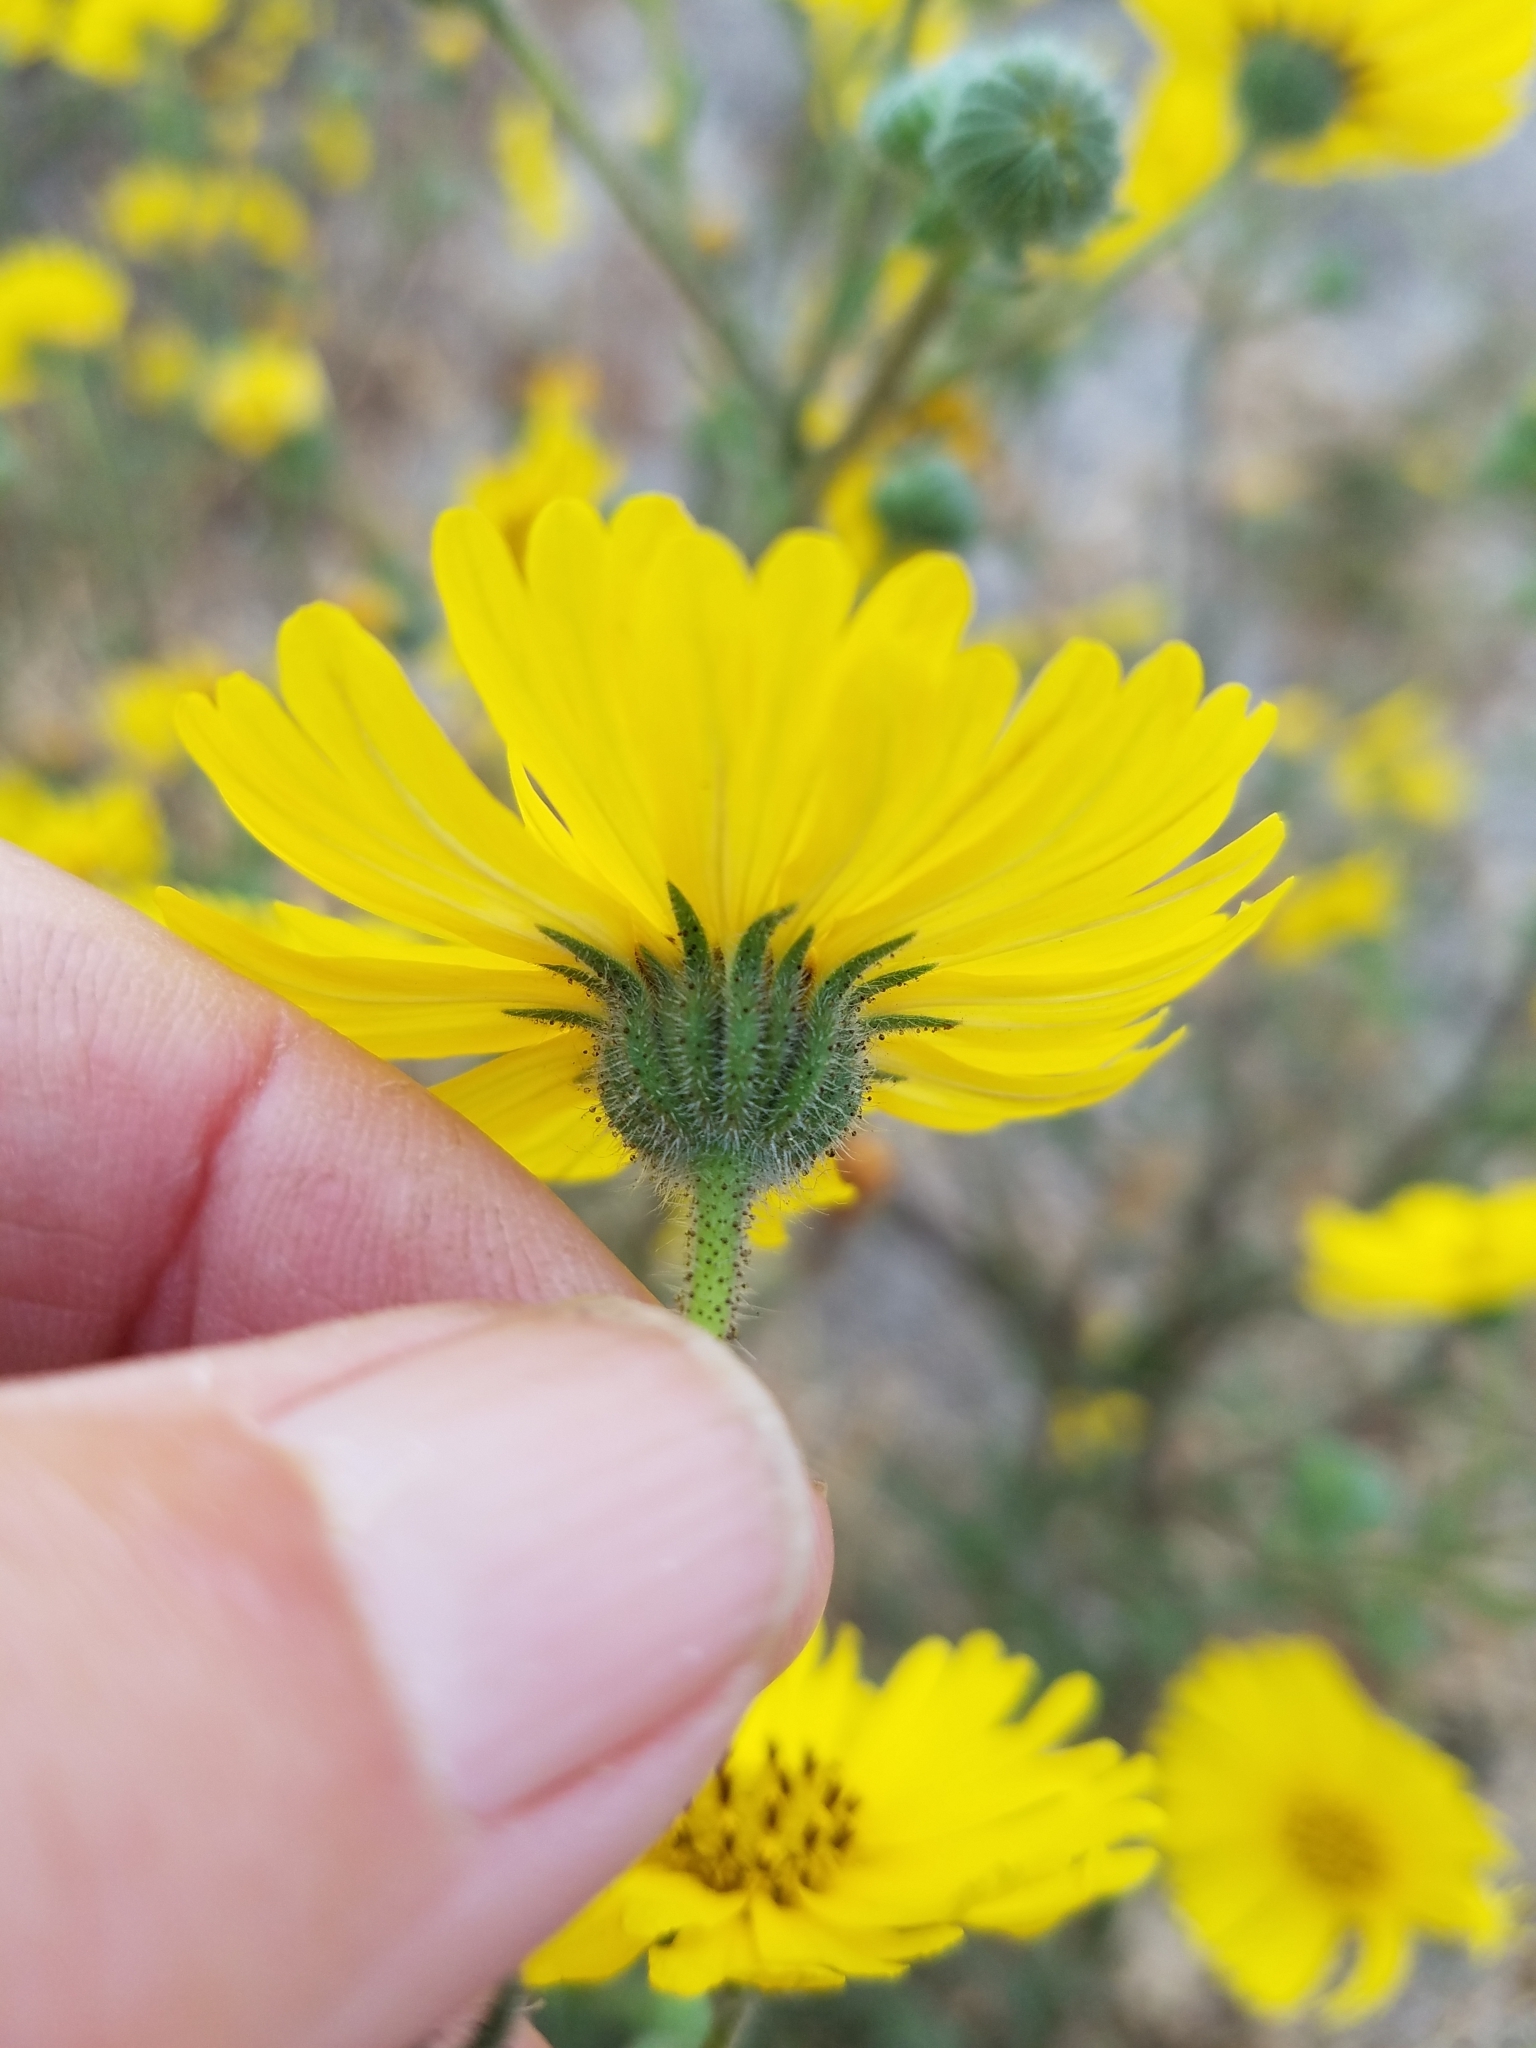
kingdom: Plantae
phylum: Tracheophyta
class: Magnoliopsida
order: Asterales
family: Asteraceae
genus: Madia
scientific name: Madia elegans
